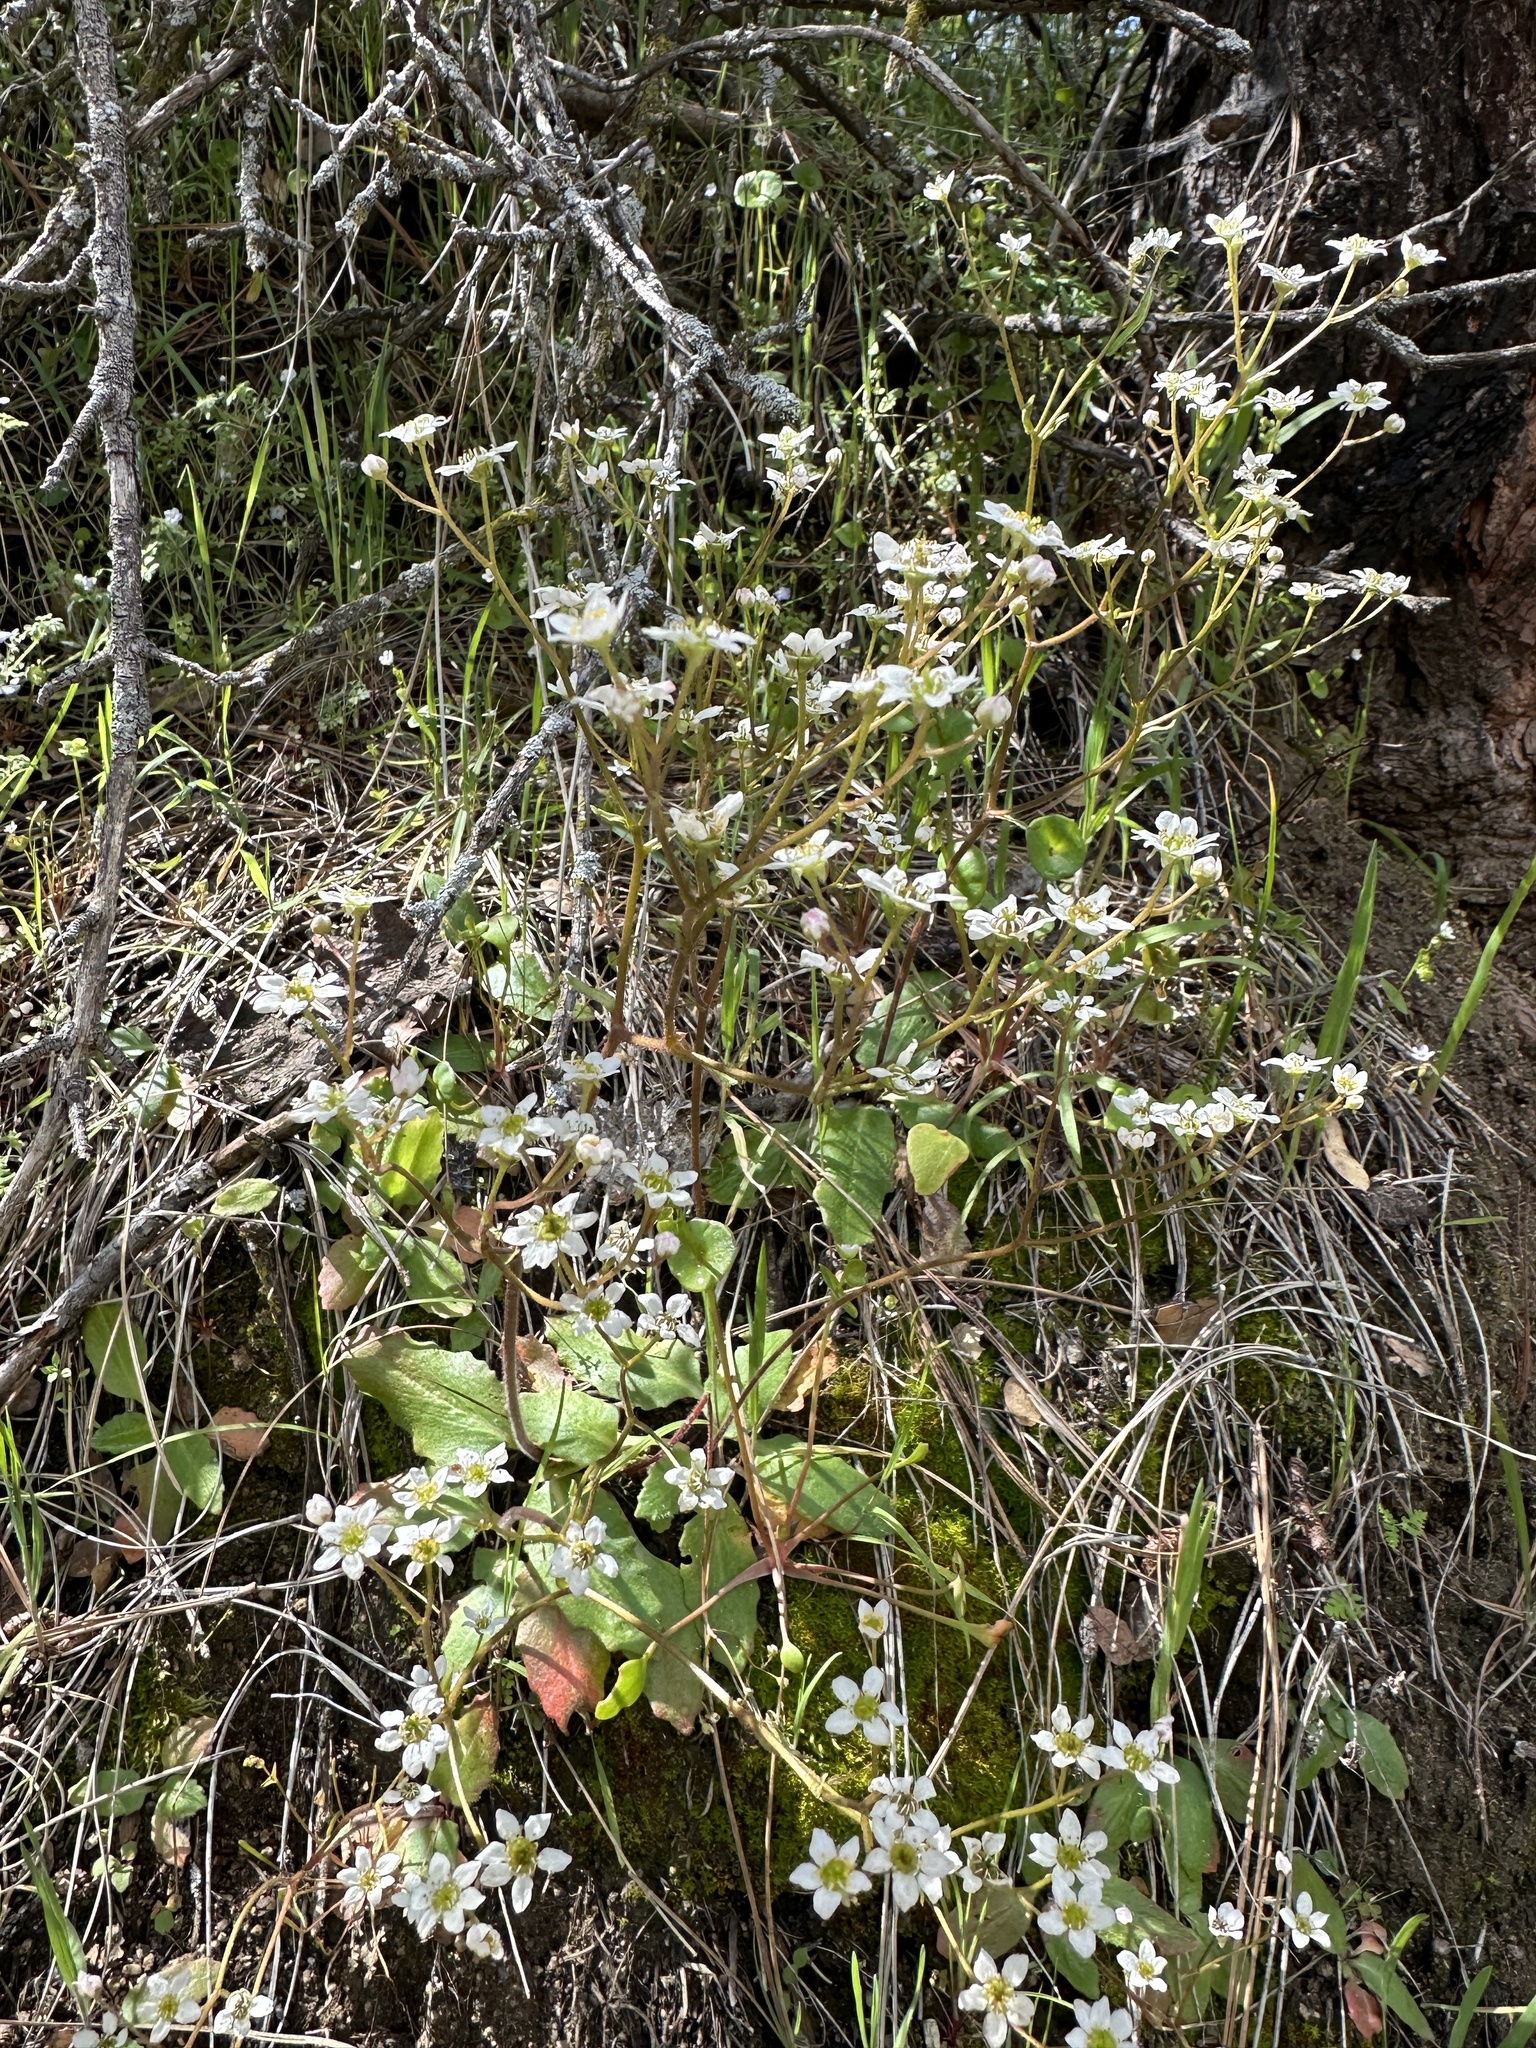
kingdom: Plantae
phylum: Tracheophyta
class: Magnoliopsida
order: Saxifragales
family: Saxifragaceae
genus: Micranthes
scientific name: Micranthes californica
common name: California saxifrage
